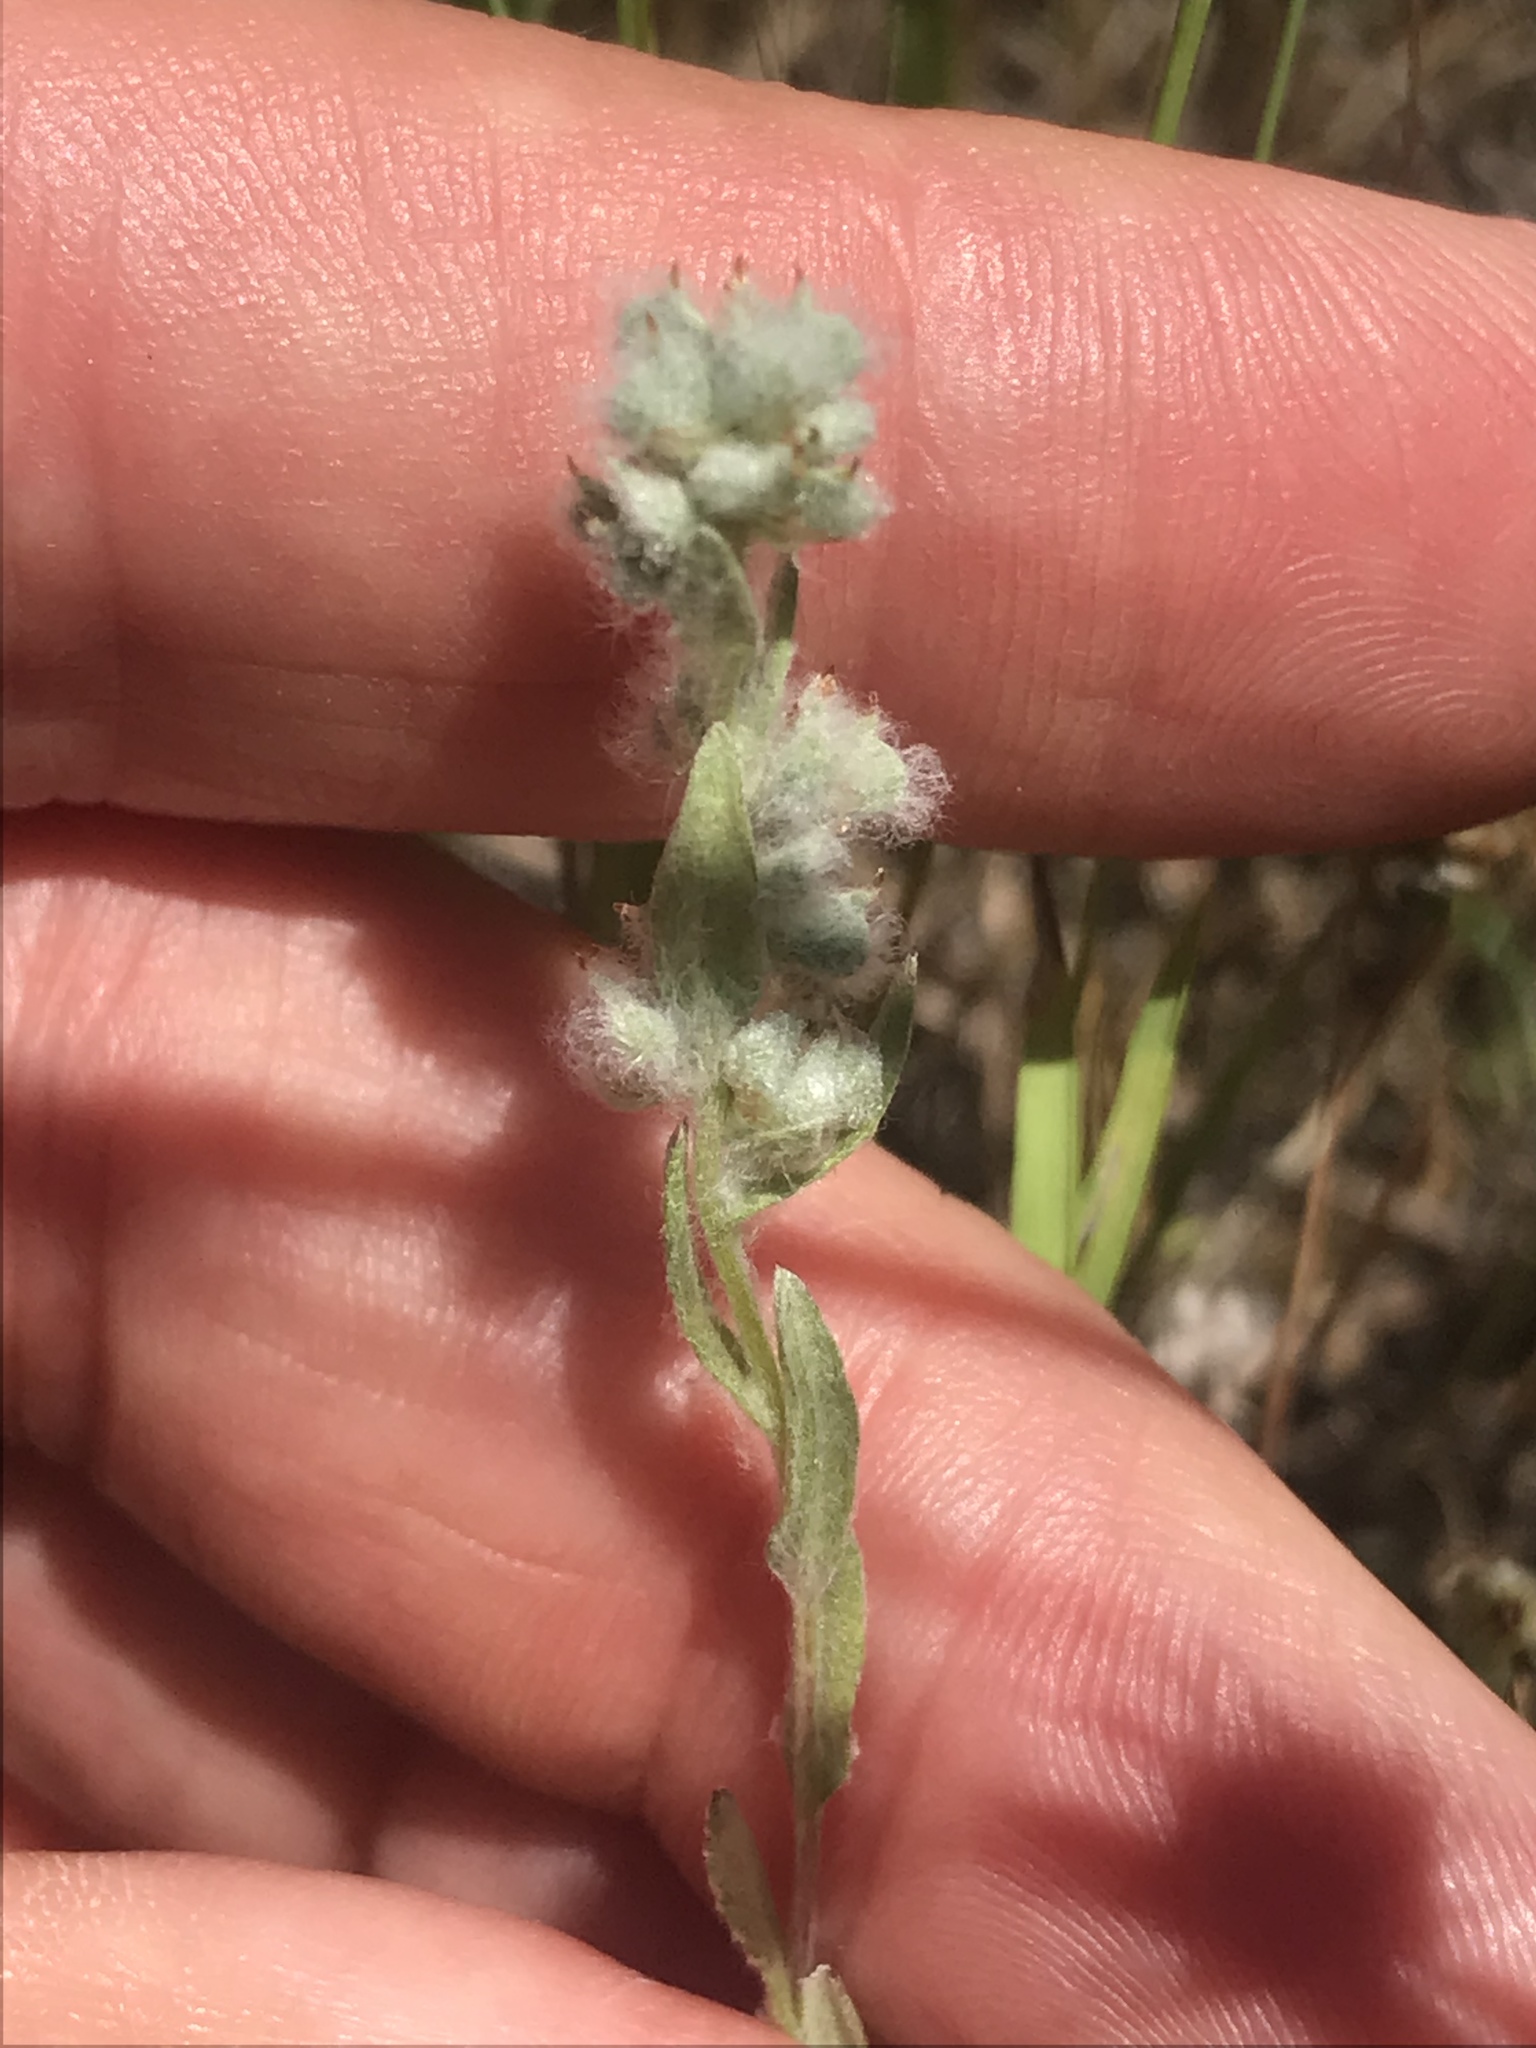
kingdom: Plantae
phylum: Tracheophyta
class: Magnoliopsida
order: Asterales
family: Asteraceae
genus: Bombycilaena
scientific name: Bombycilaena californica
